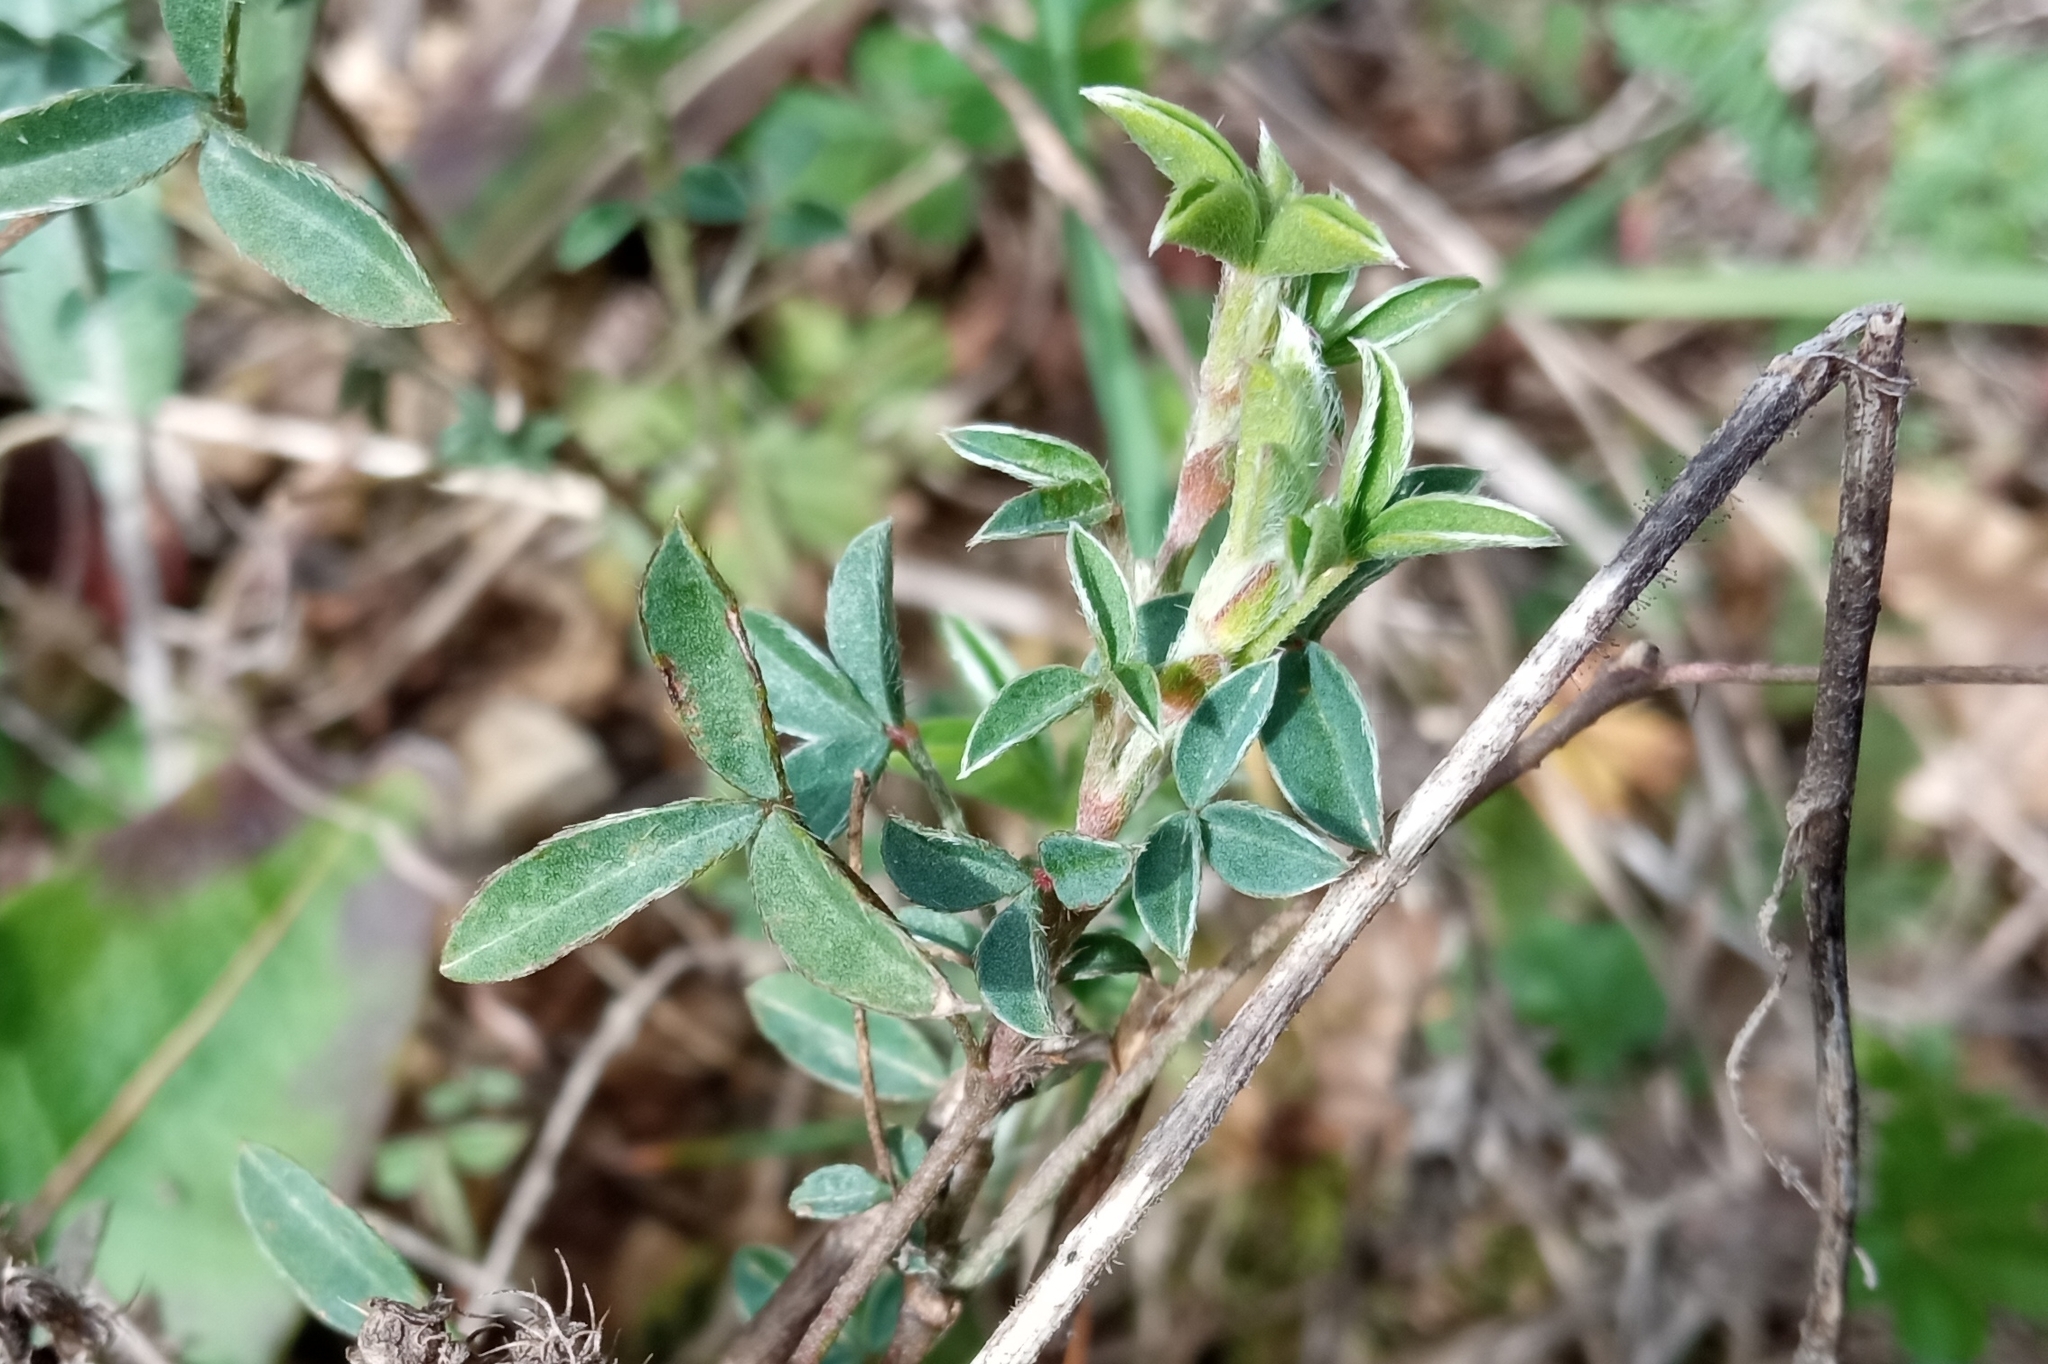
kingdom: Plantae
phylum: Tracheophyta
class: Magnoliopsida
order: Fabales
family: Fabaceae
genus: Argyrolobium
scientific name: Argyrolobium zanonii
